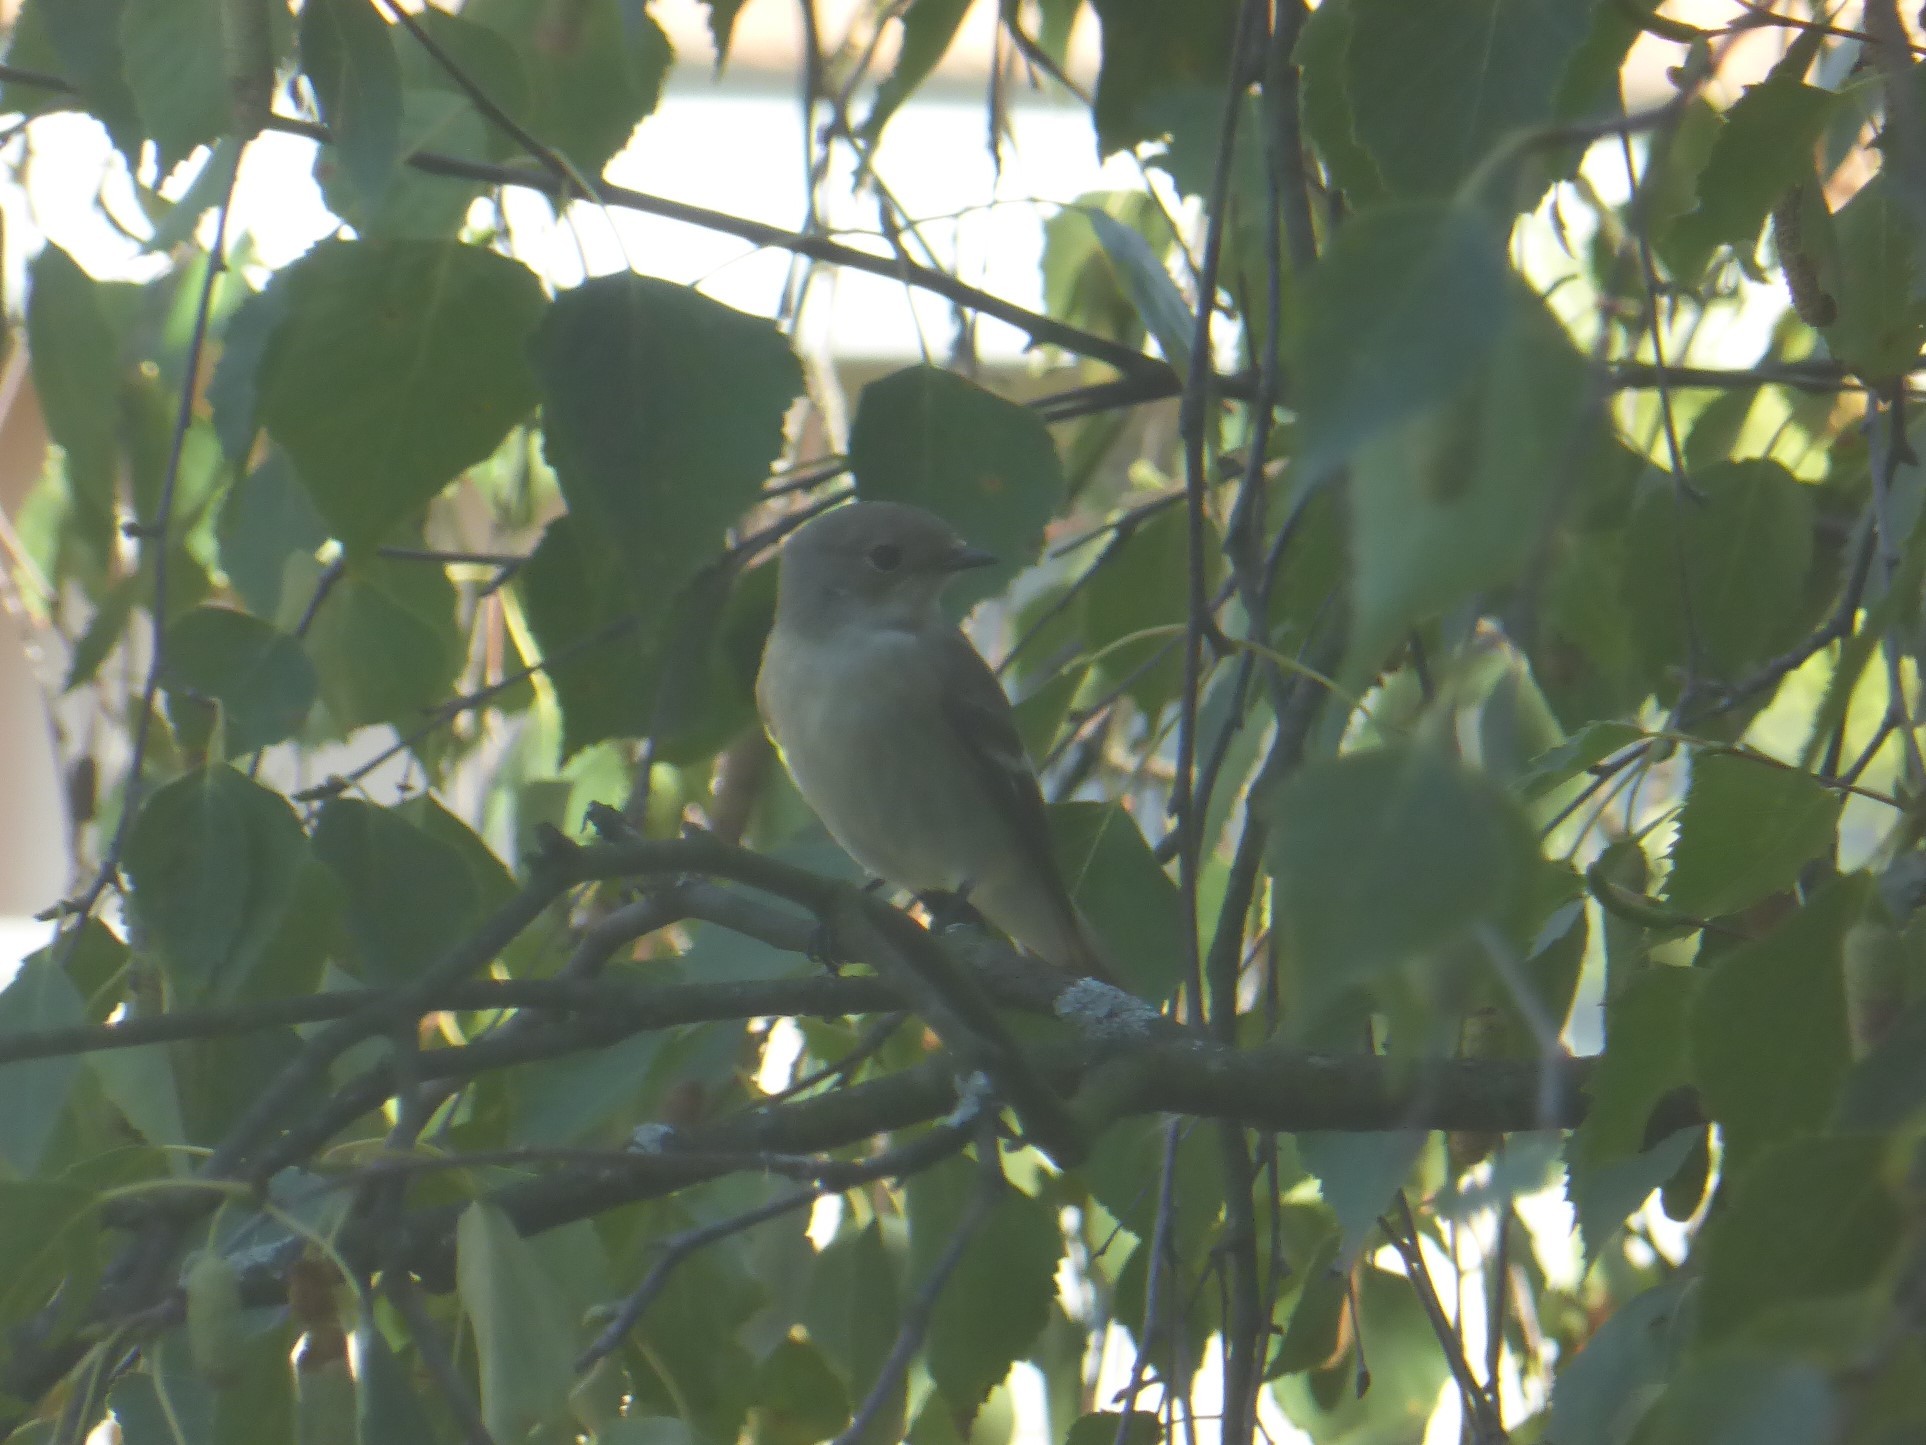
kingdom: Animalia
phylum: Chordata
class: Aves
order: Passeriformes
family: Muscicapidae
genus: Ficedula
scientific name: Ficedula hypoleuca
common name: European pied flycatcher
